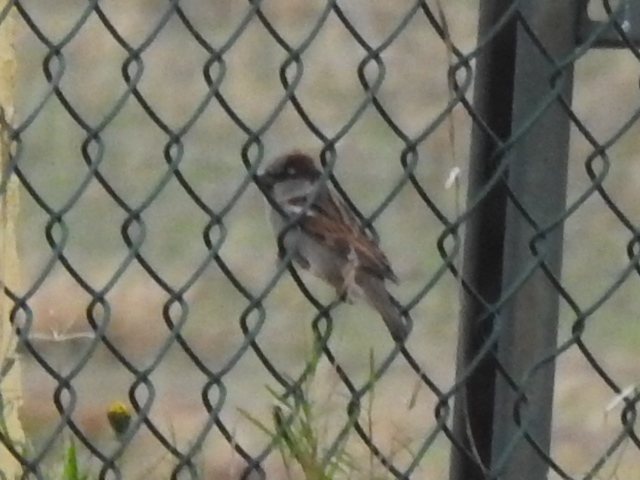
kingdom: Animalia
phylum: Chordata
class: Aves
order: Passeriformes
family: Passeridae
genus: Passer
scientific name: Passer domesticus
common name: House sparrow
